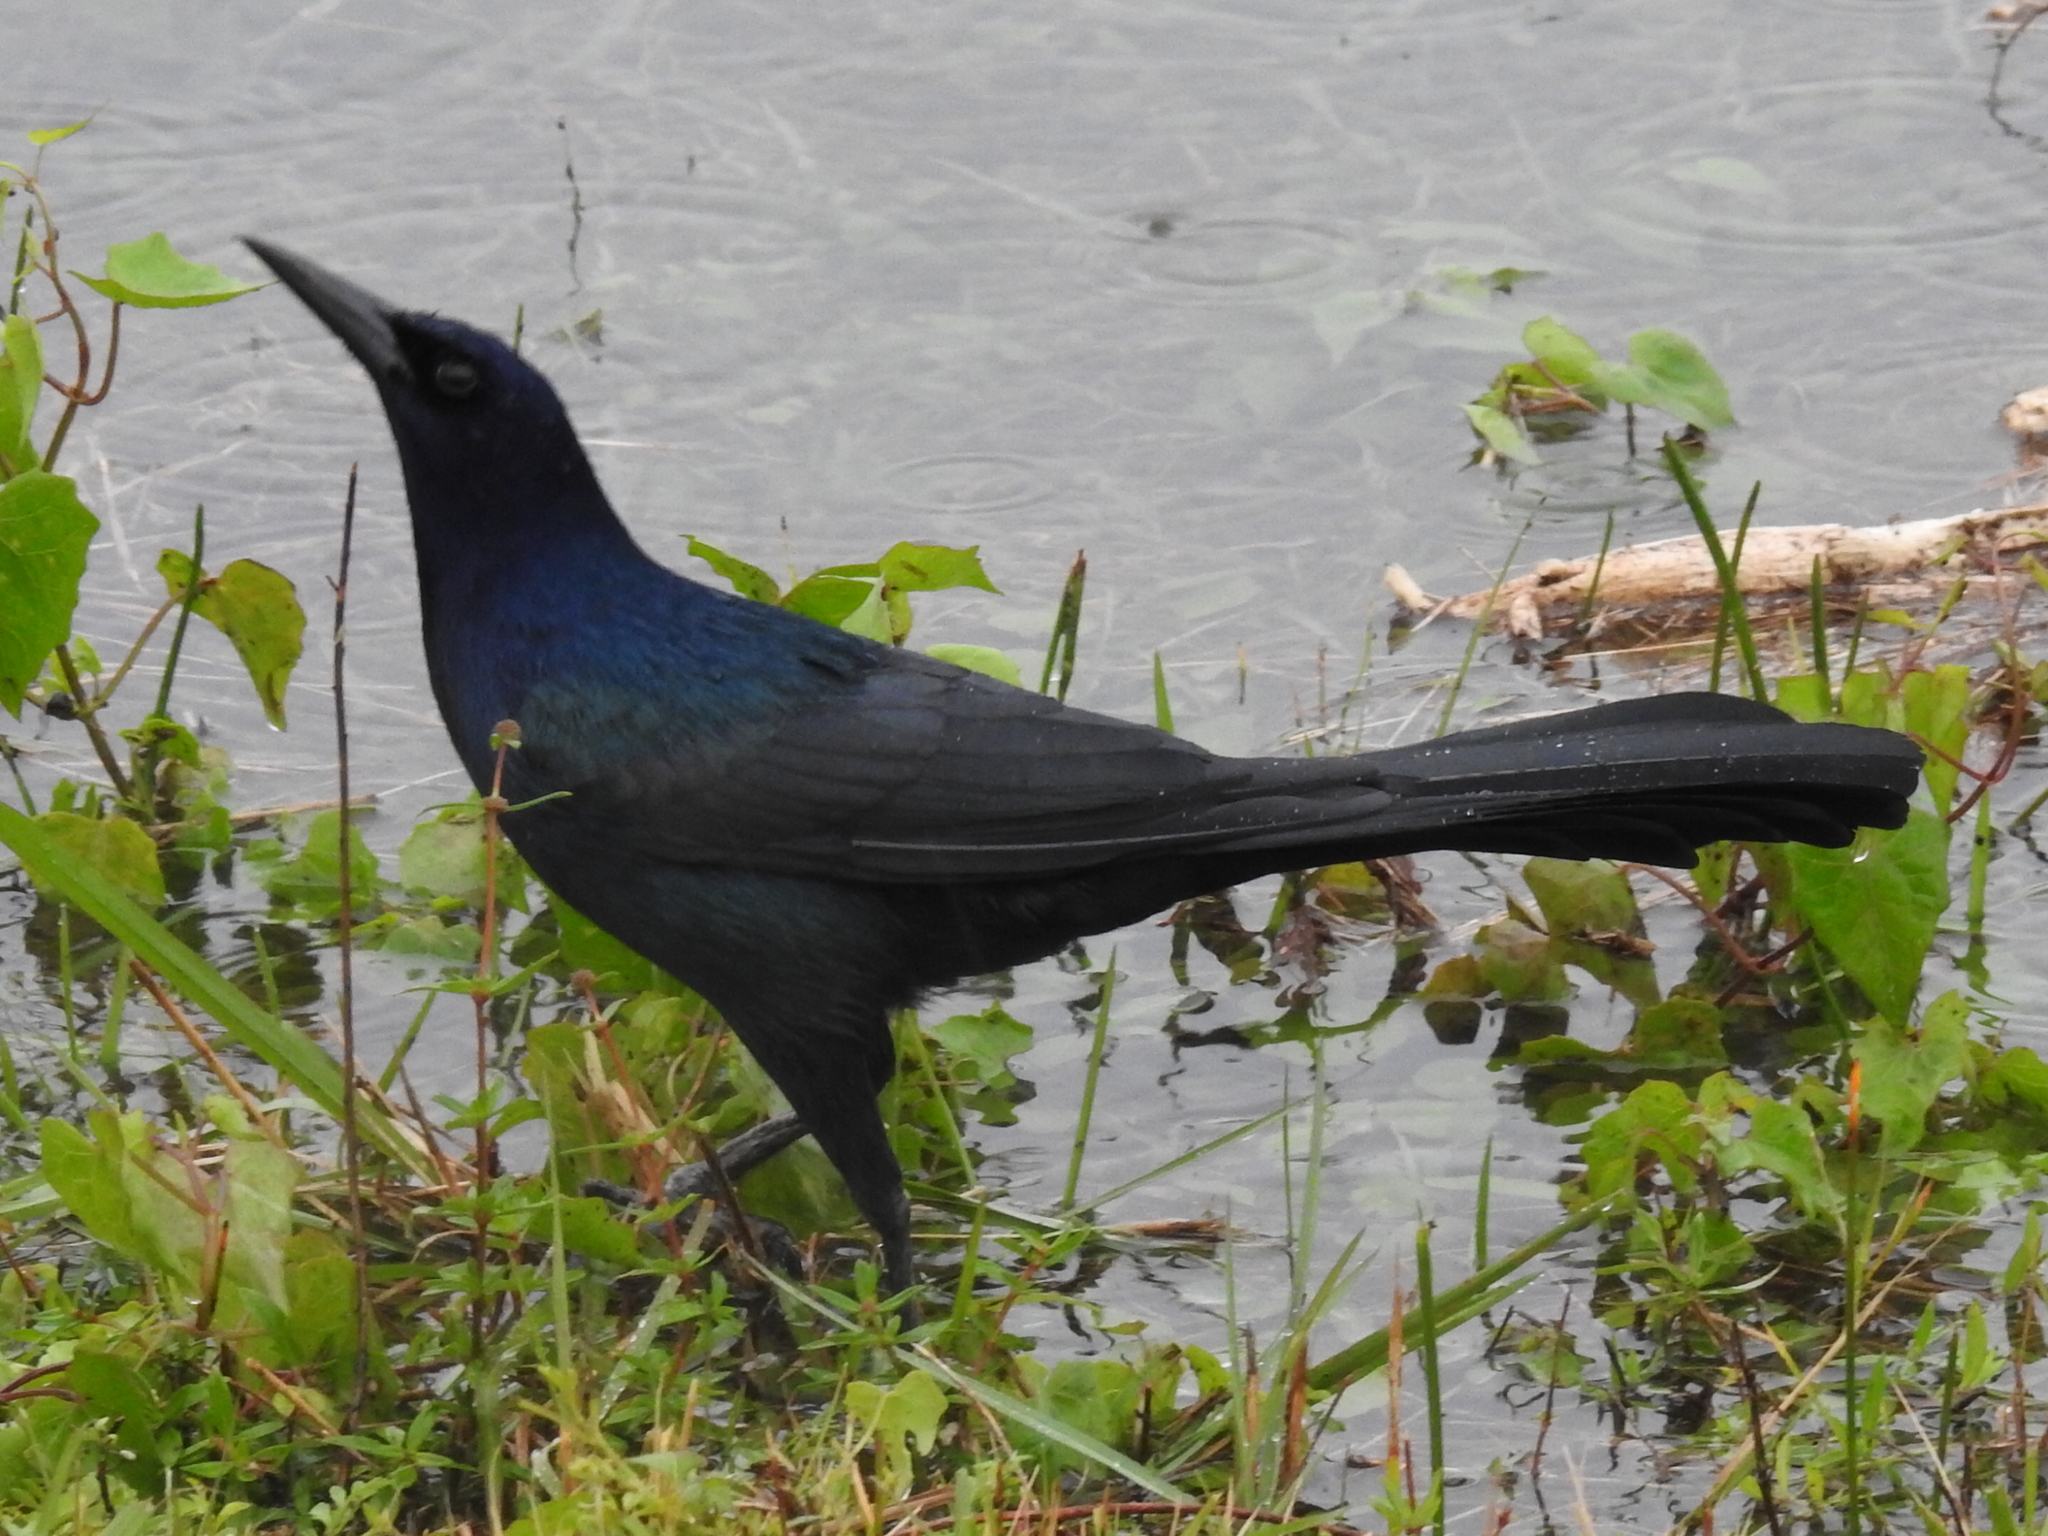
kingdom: Animalia
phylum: Chordata
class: Aves
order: Passeriformes
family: Icteridae
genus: Quiscalus
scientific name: Quiscalus major
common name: Boat-tailed grackle
